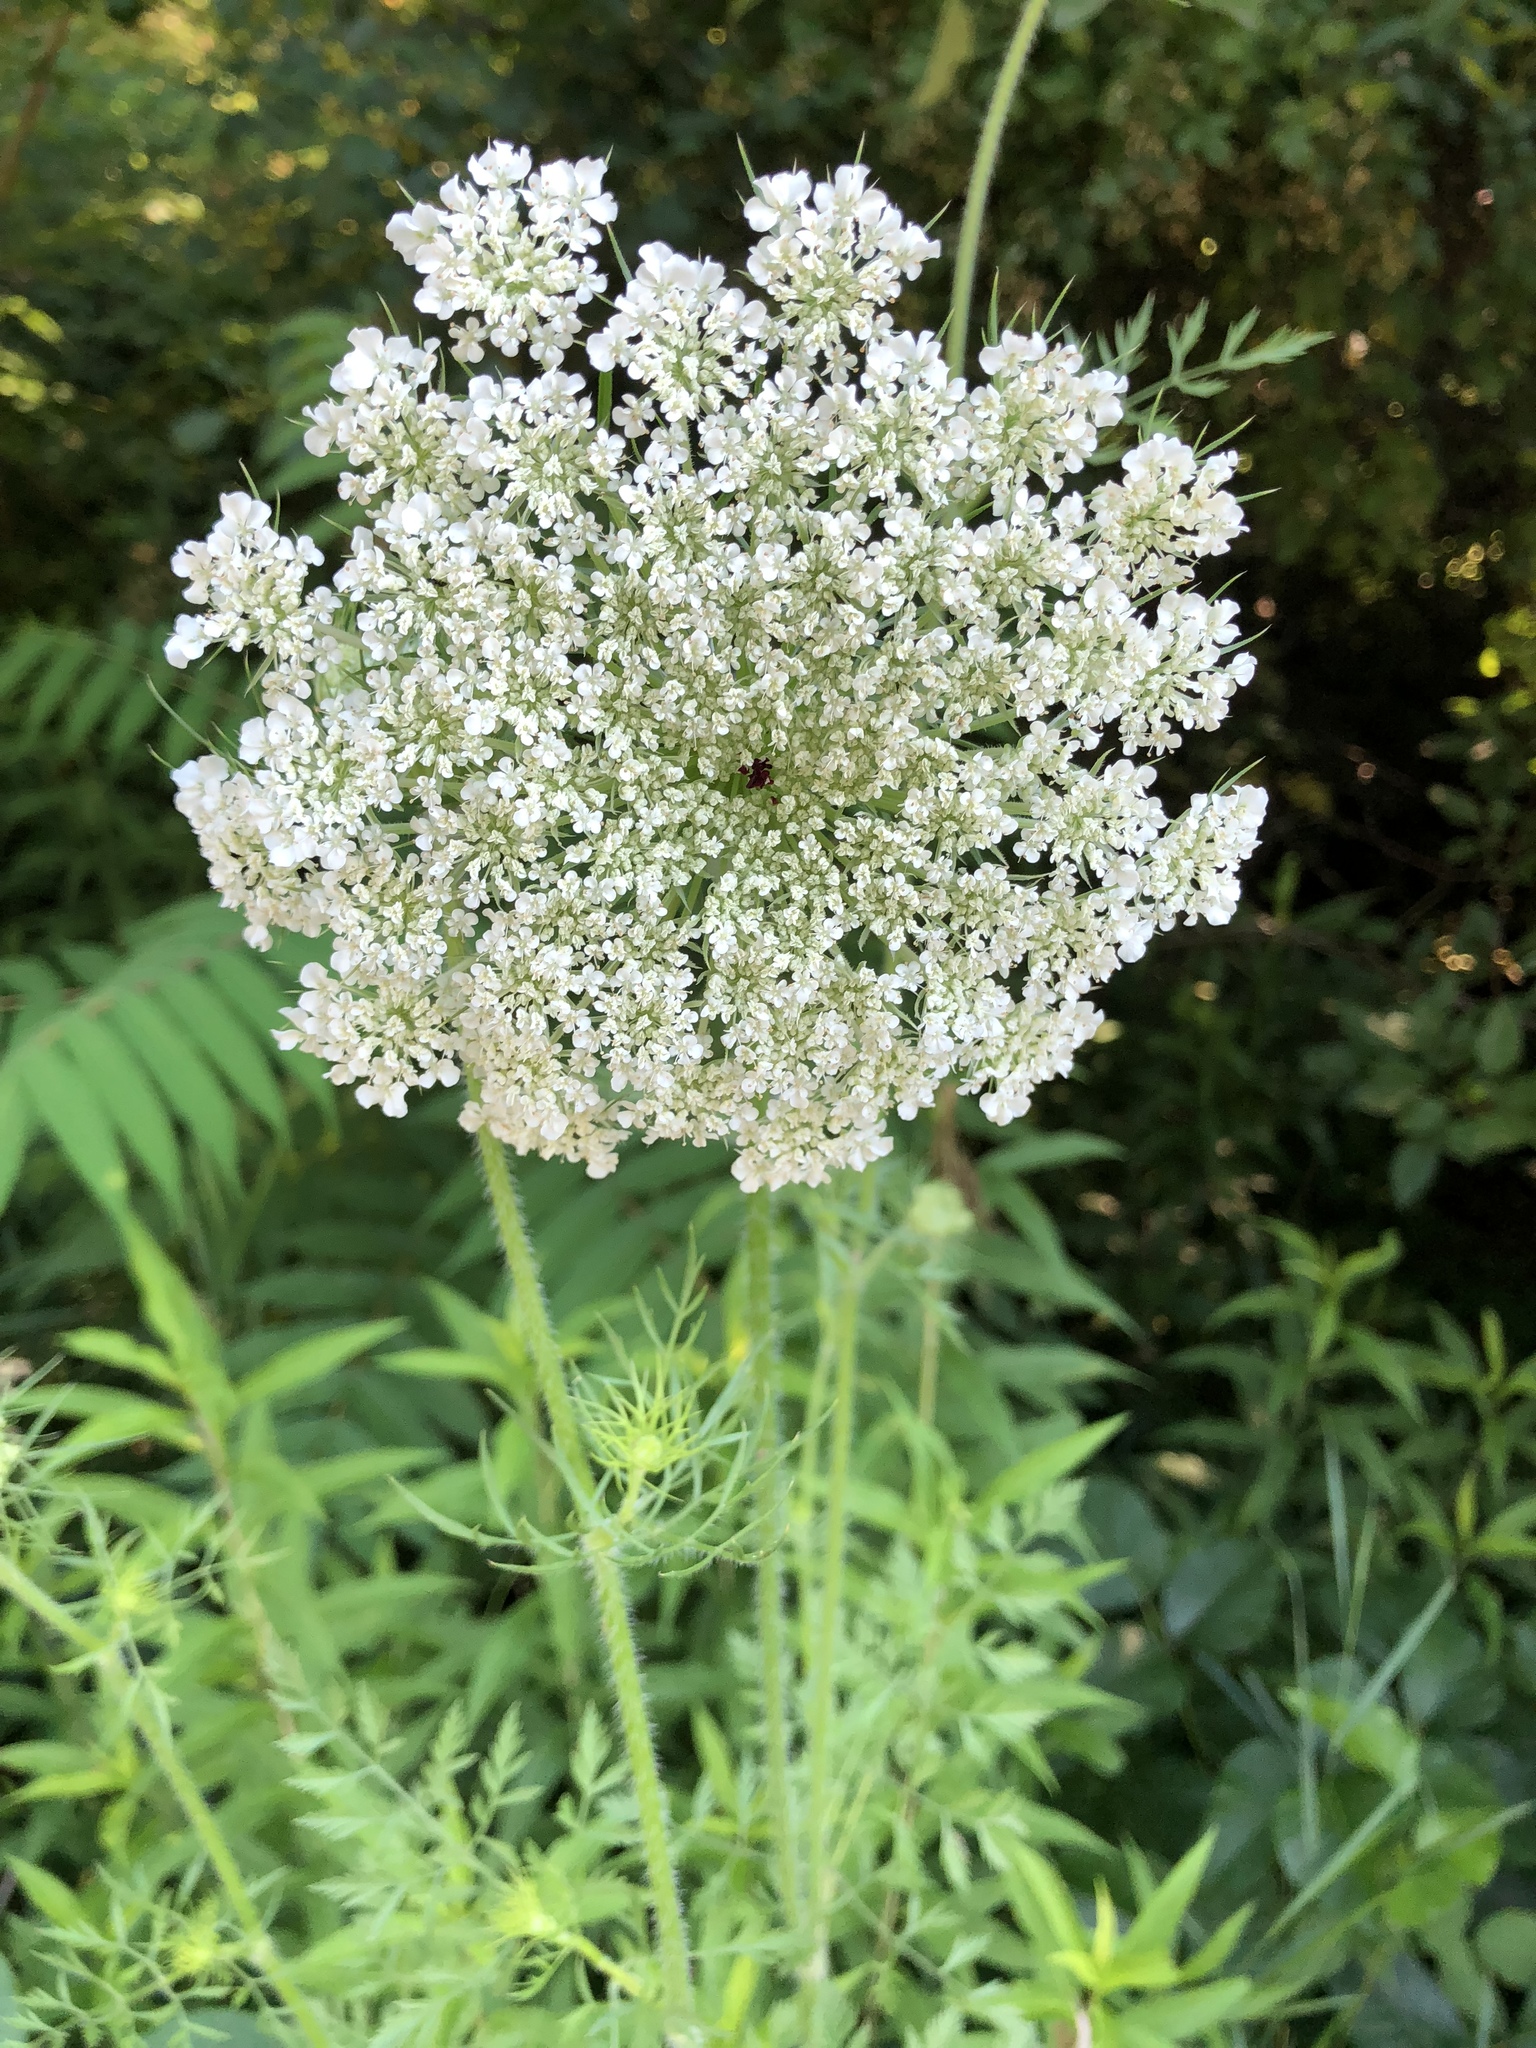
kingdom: Plantae
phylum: Tracheophyta
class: Magnoliopsida
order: Apiales
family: Apiaceae
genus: Daucus
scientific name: Daucus carota
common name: Wild carrot
